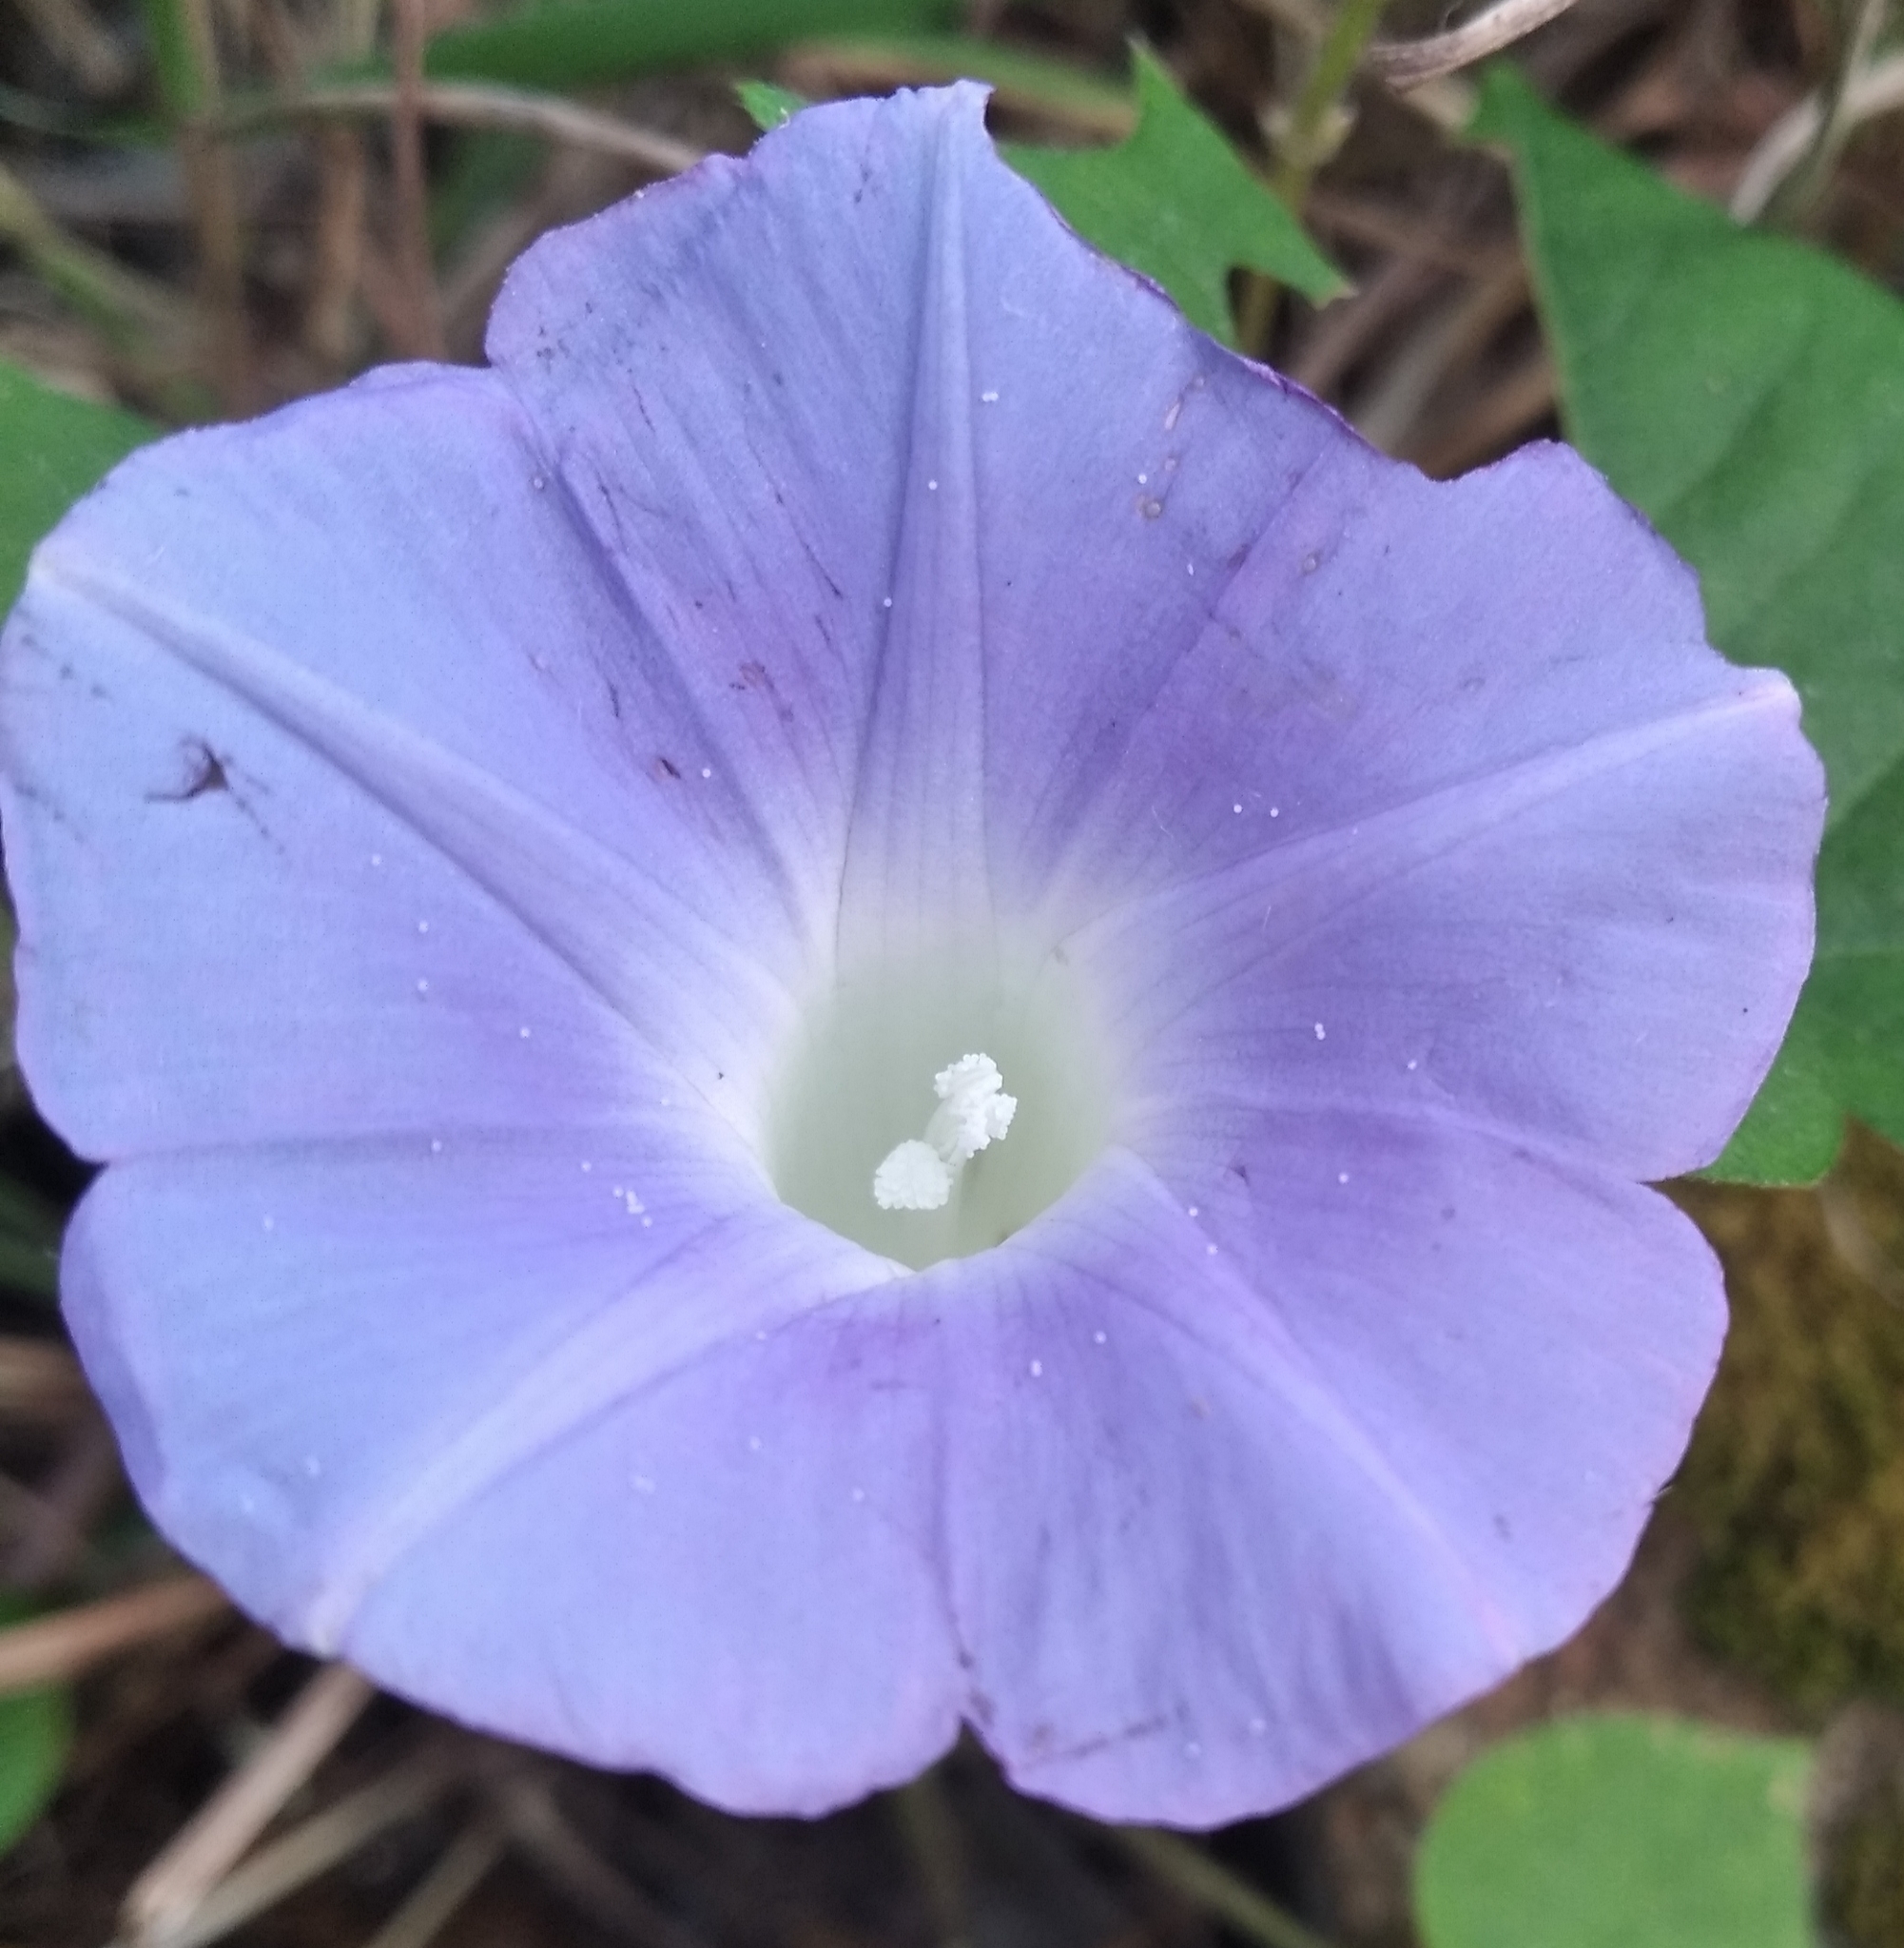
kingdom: Plantae
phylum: Tracheophyta
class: Magnoliopsida
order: Solanales
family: Convolvulaceae
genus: Ipomoea
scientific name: Ipomoea nil
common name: Japanese morning-glory
